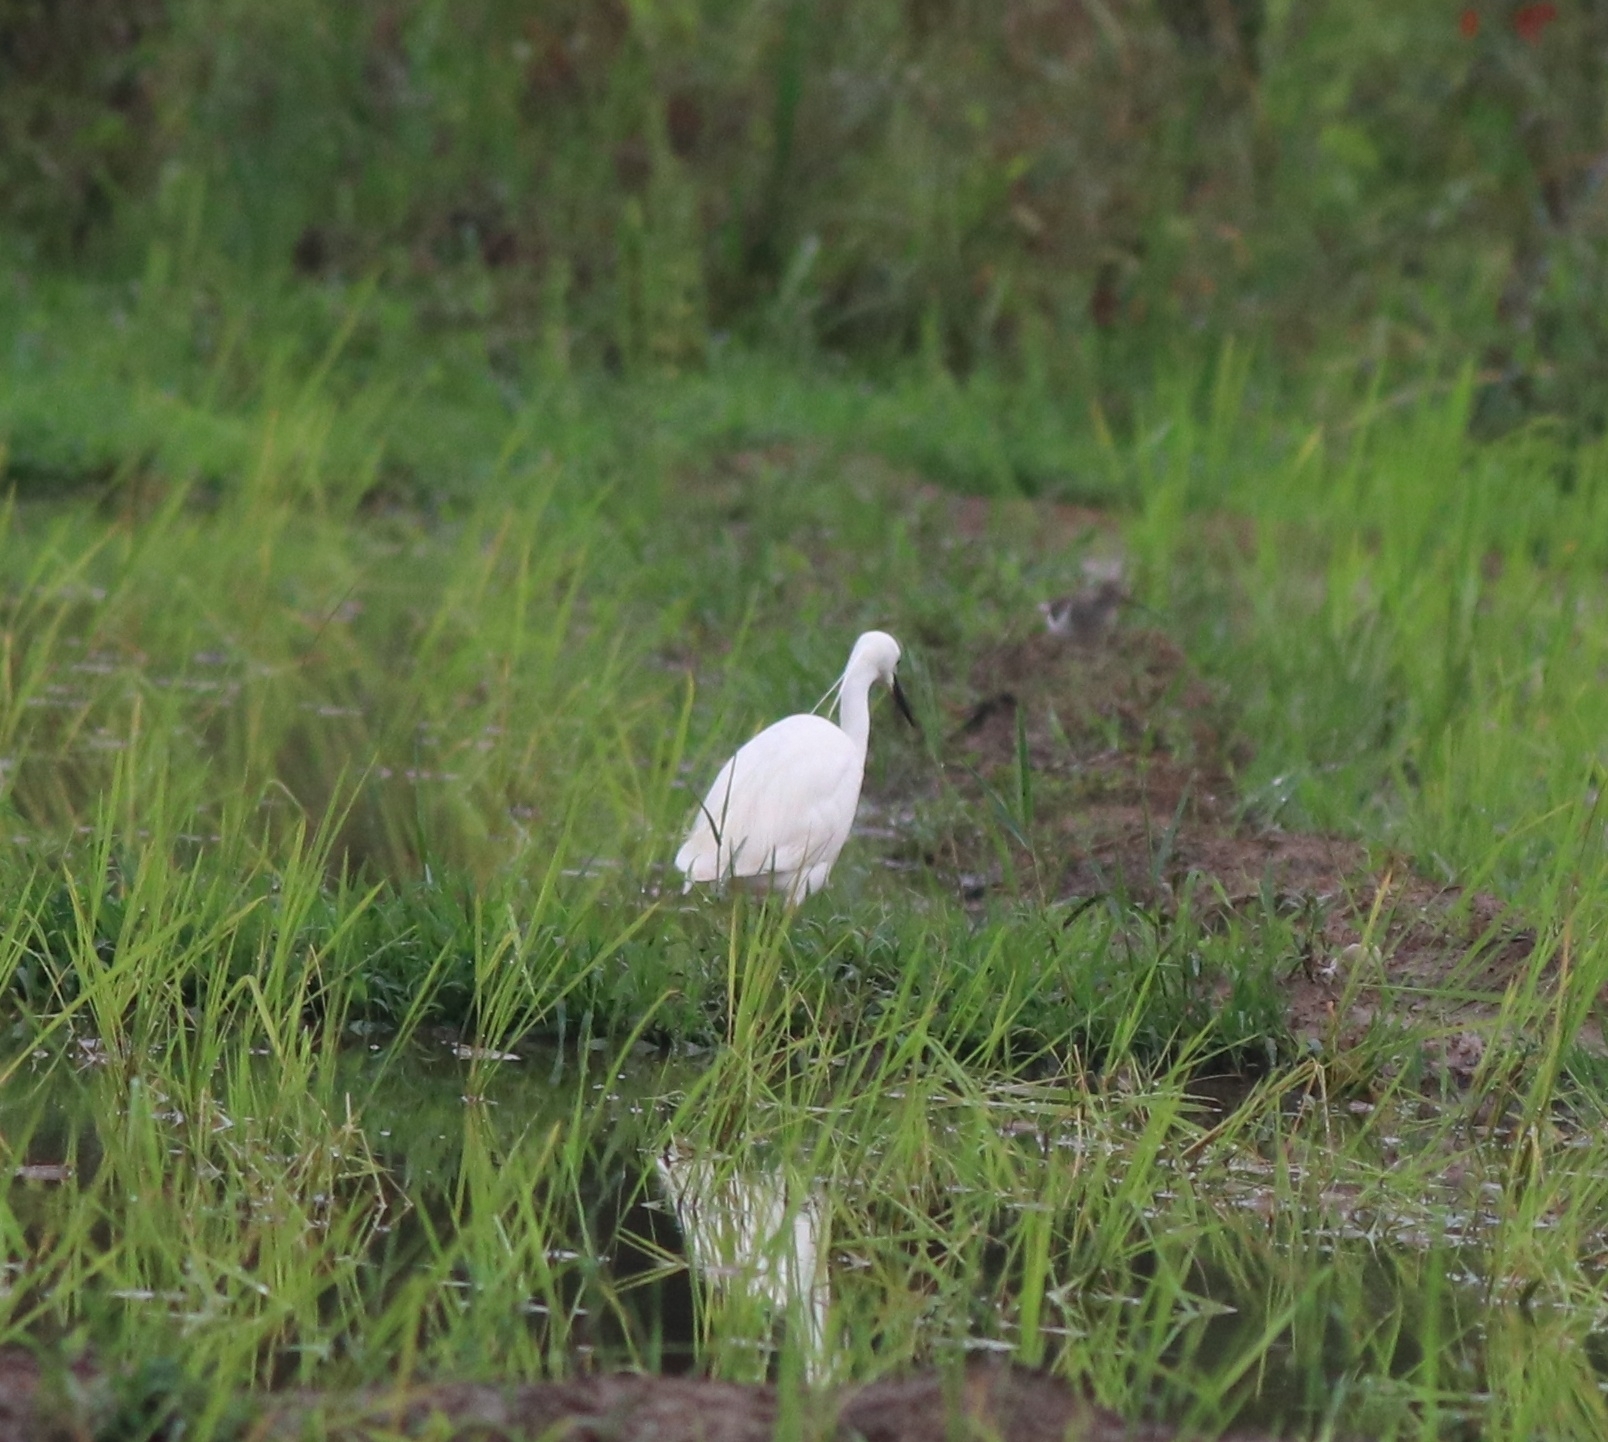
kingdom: Animalia
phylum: Chordata
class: Aves
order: Pelecaniformes
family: Ardeidae
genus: Egretta
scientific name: Egretta garzetta
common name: Little egret
